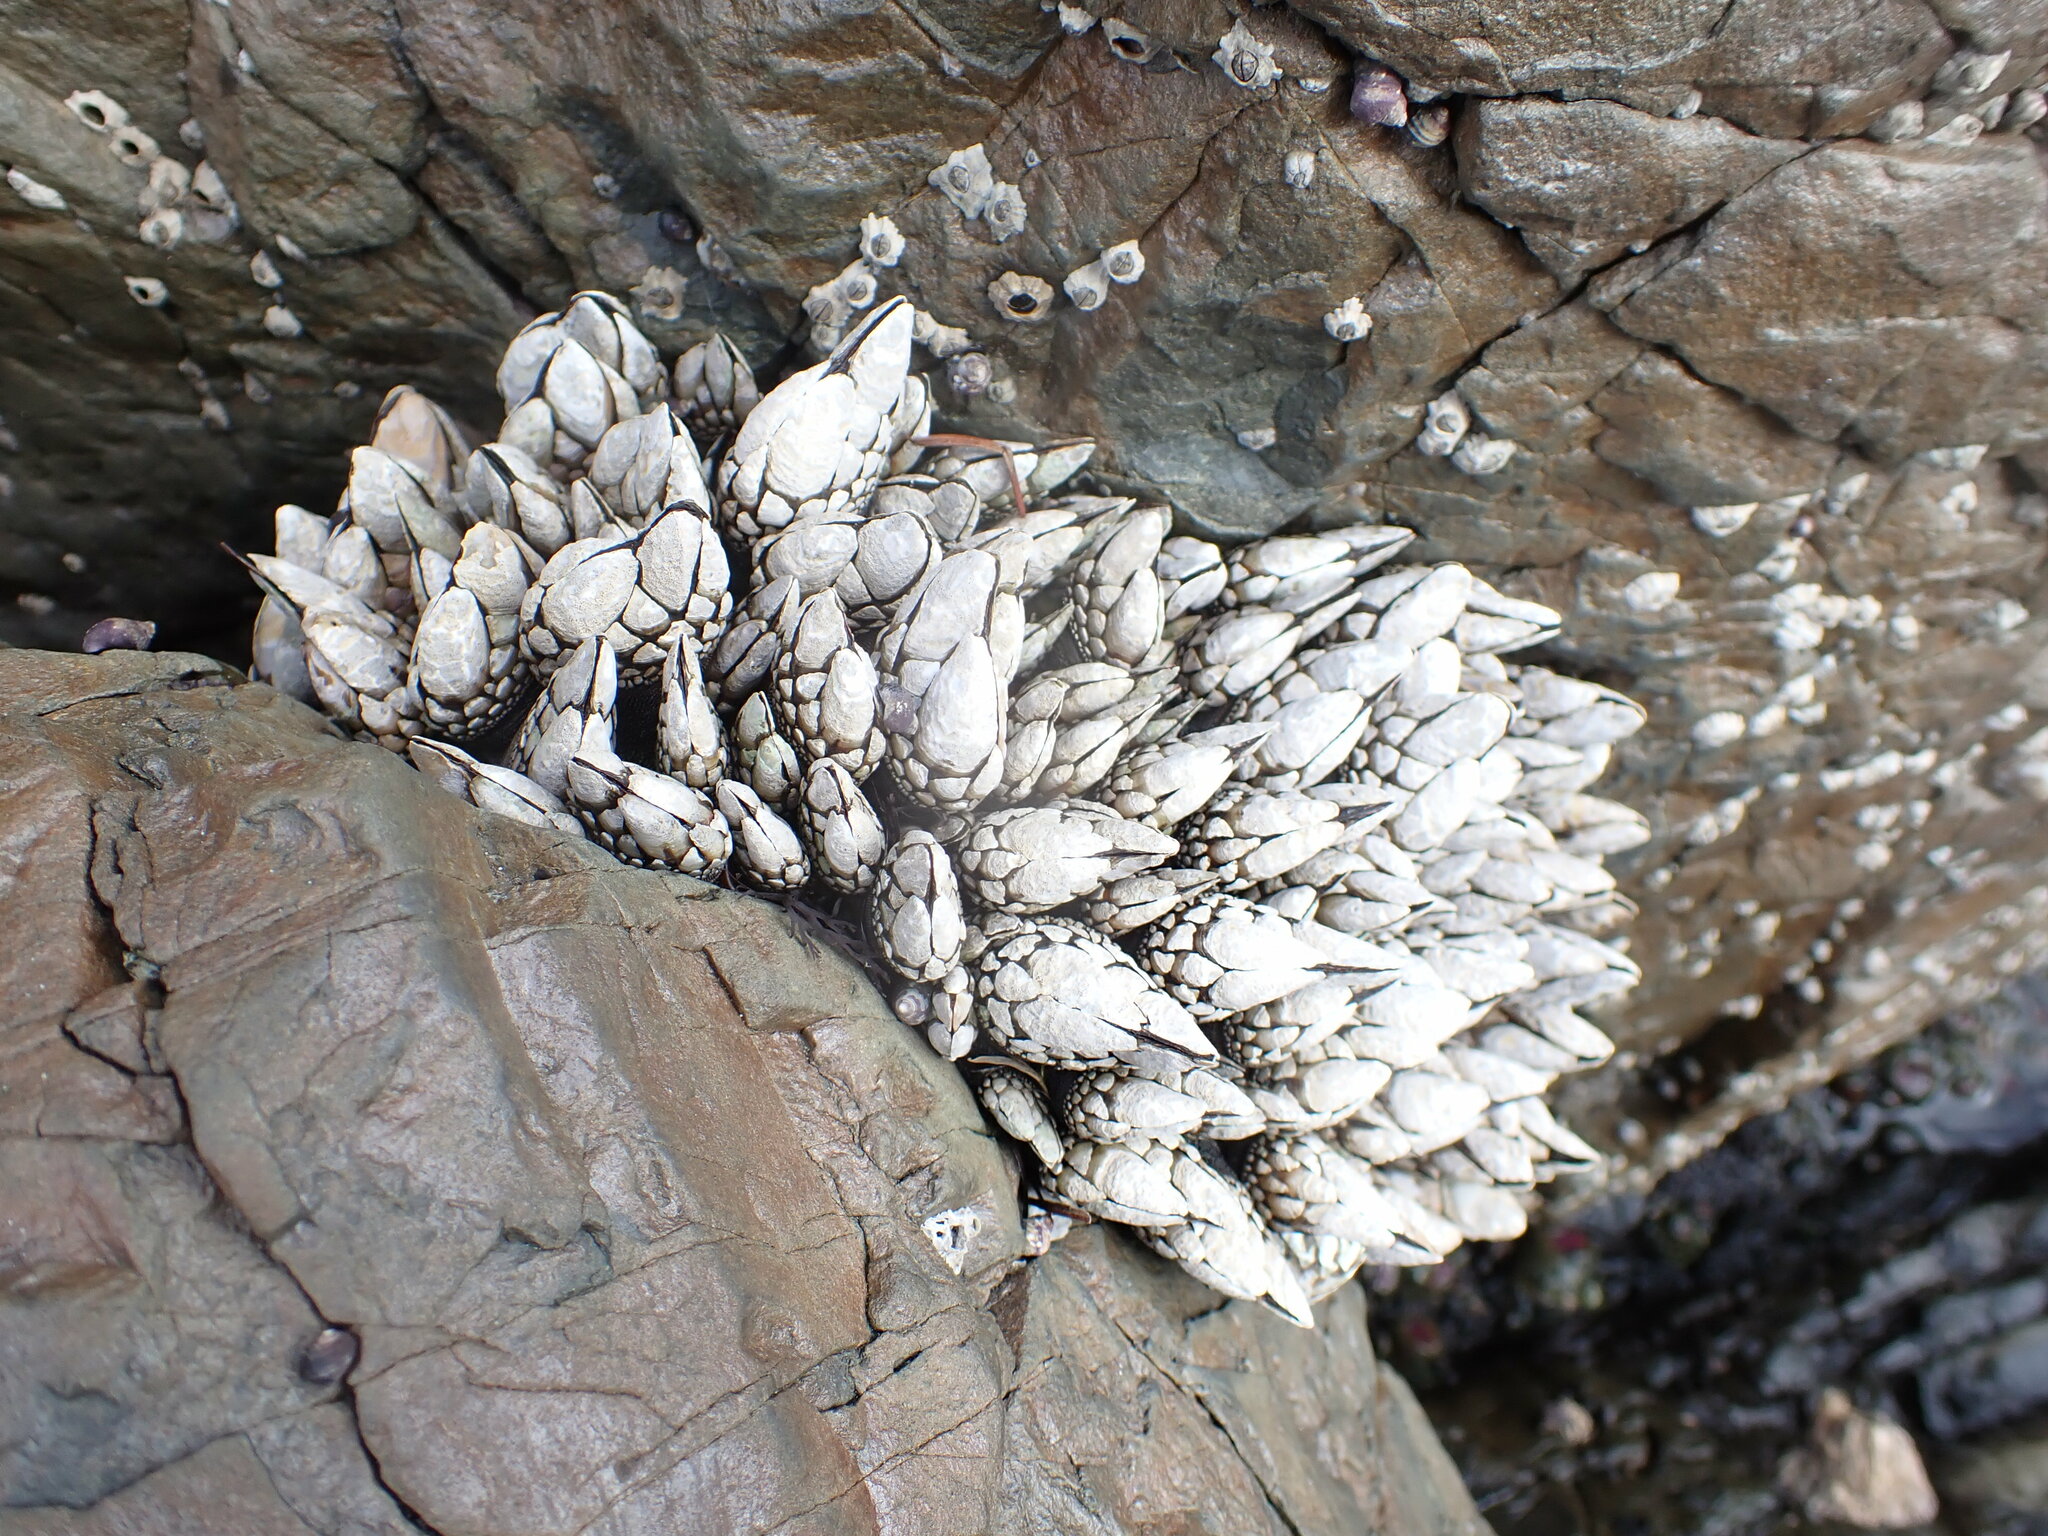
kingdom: Animalia
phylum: Arthropoda
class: Maxillopoda
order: Pedunculata
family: Pollicipedidae
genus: Pollicipes
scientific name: Pollicipes polymerus
